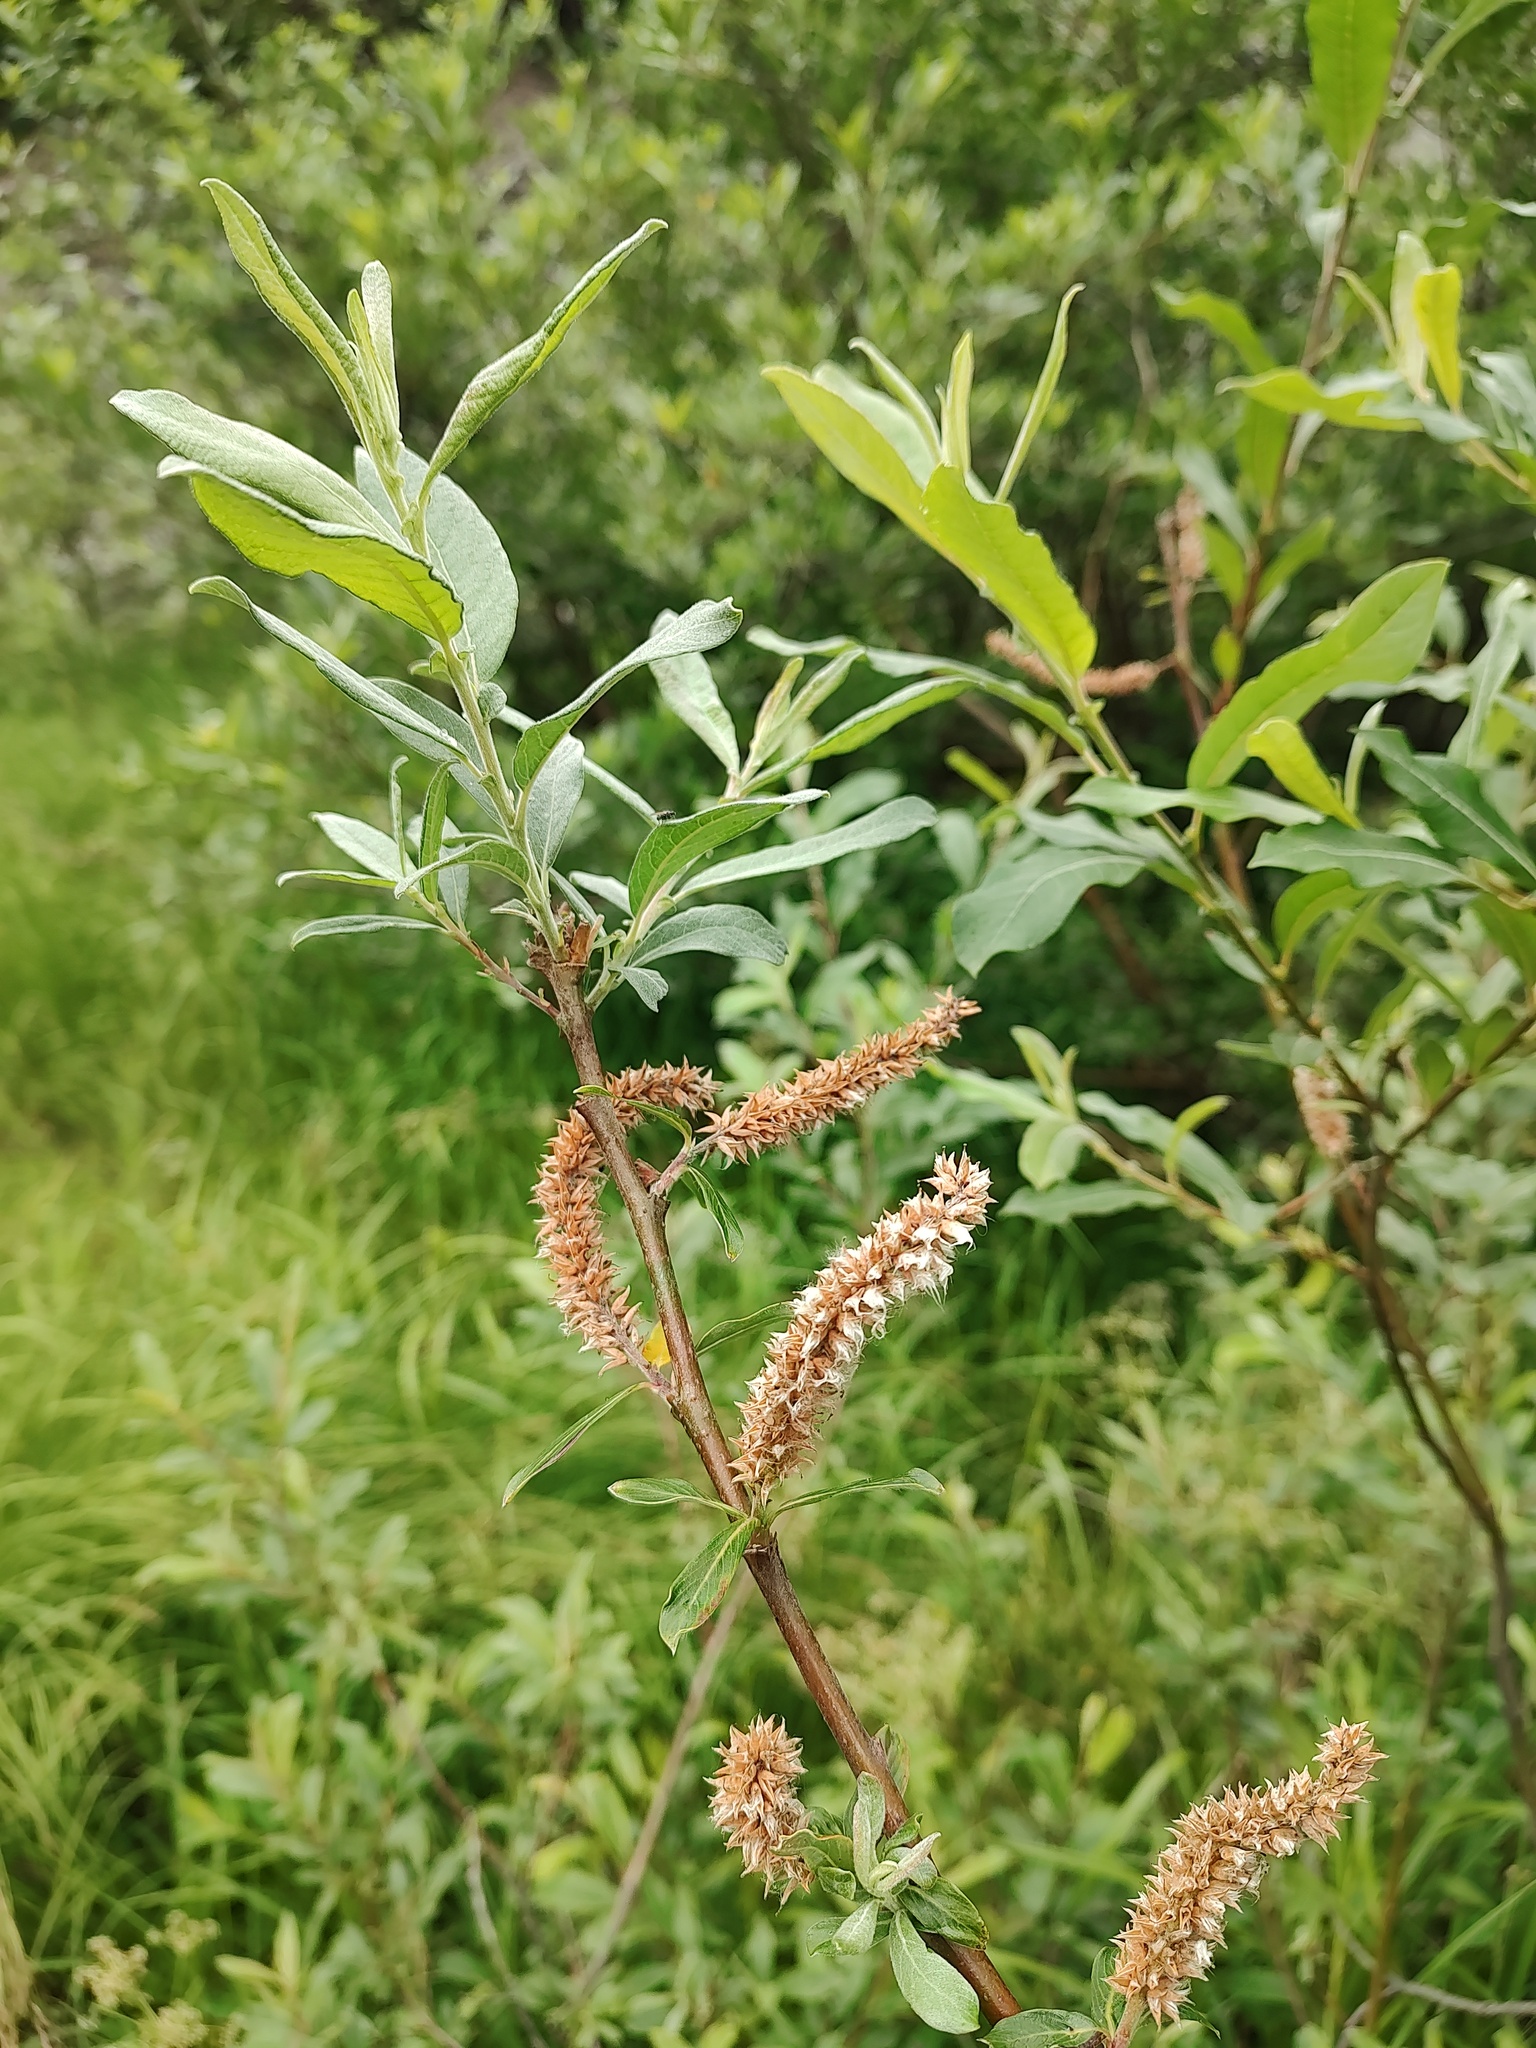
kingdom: Plantae
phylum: Tracheophyta
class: Magnoliopsida
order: Malpighiales
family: Salicaceae
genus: Salix
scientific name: Salix sitchensis
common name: Sitka willow
